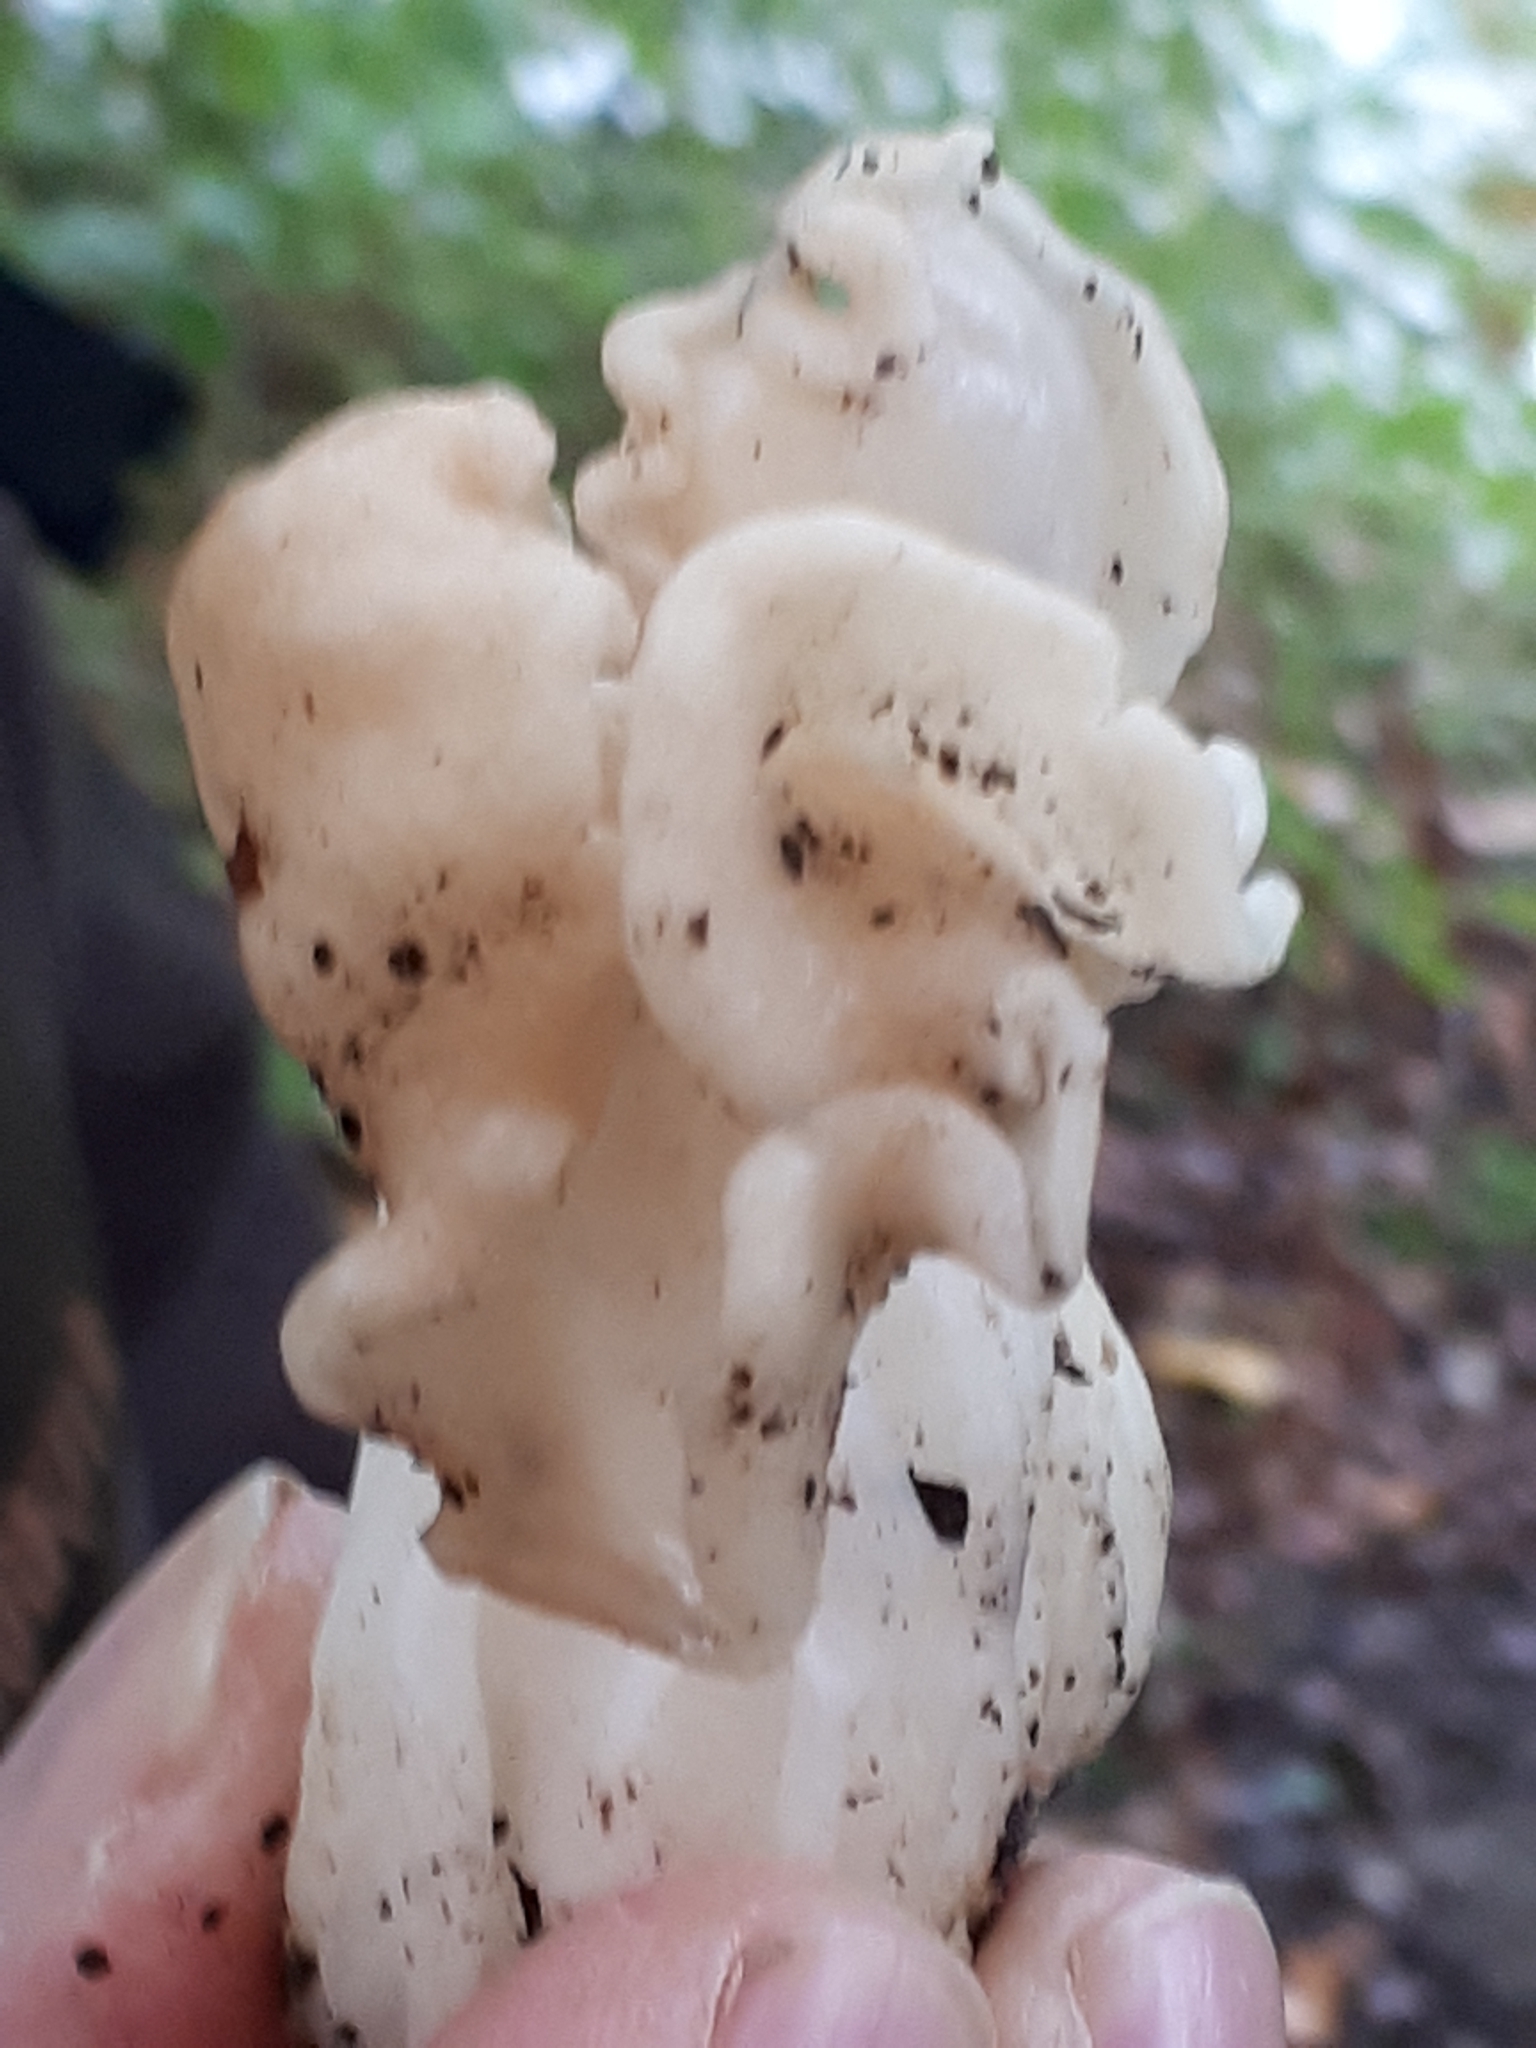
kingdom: Fungi
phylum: Ascomycota
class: Pezizomycetes
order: Pezizales
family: Helvellaceae
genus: Helvella
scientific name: Helvella crispa
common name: White saddle
